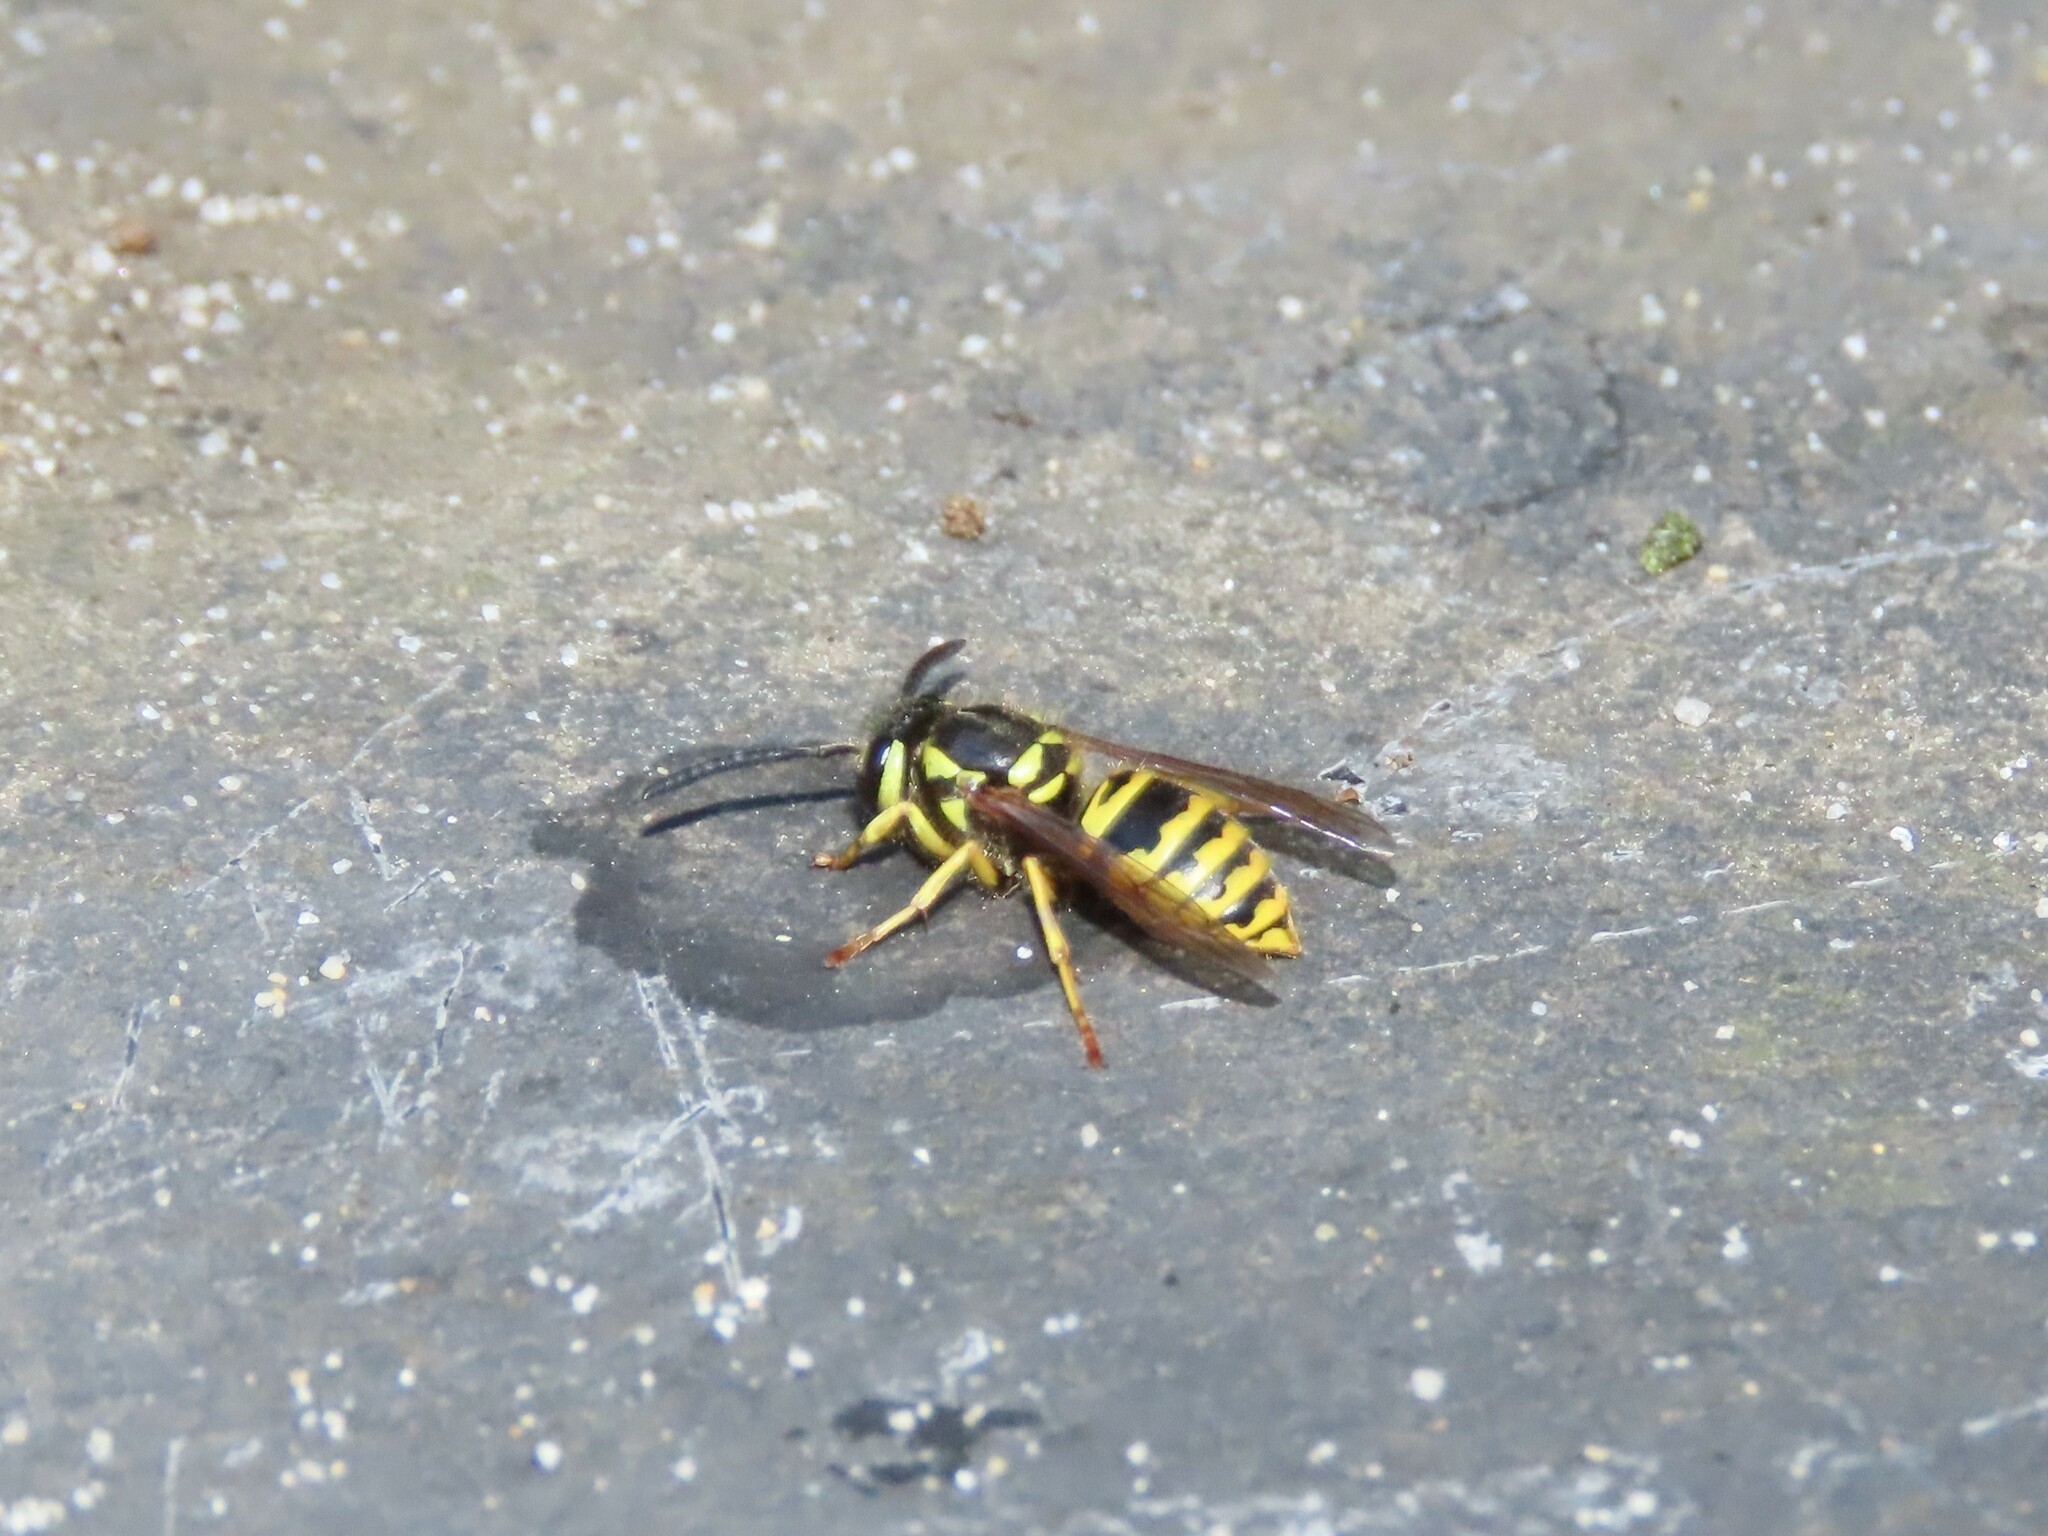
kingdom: Animalia
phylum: Arthropoda
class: Insecta
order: Hymenoptera
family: Vespidae
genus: Vespula
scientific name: Vespula maculifrons
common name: Eastern yellowjacket
